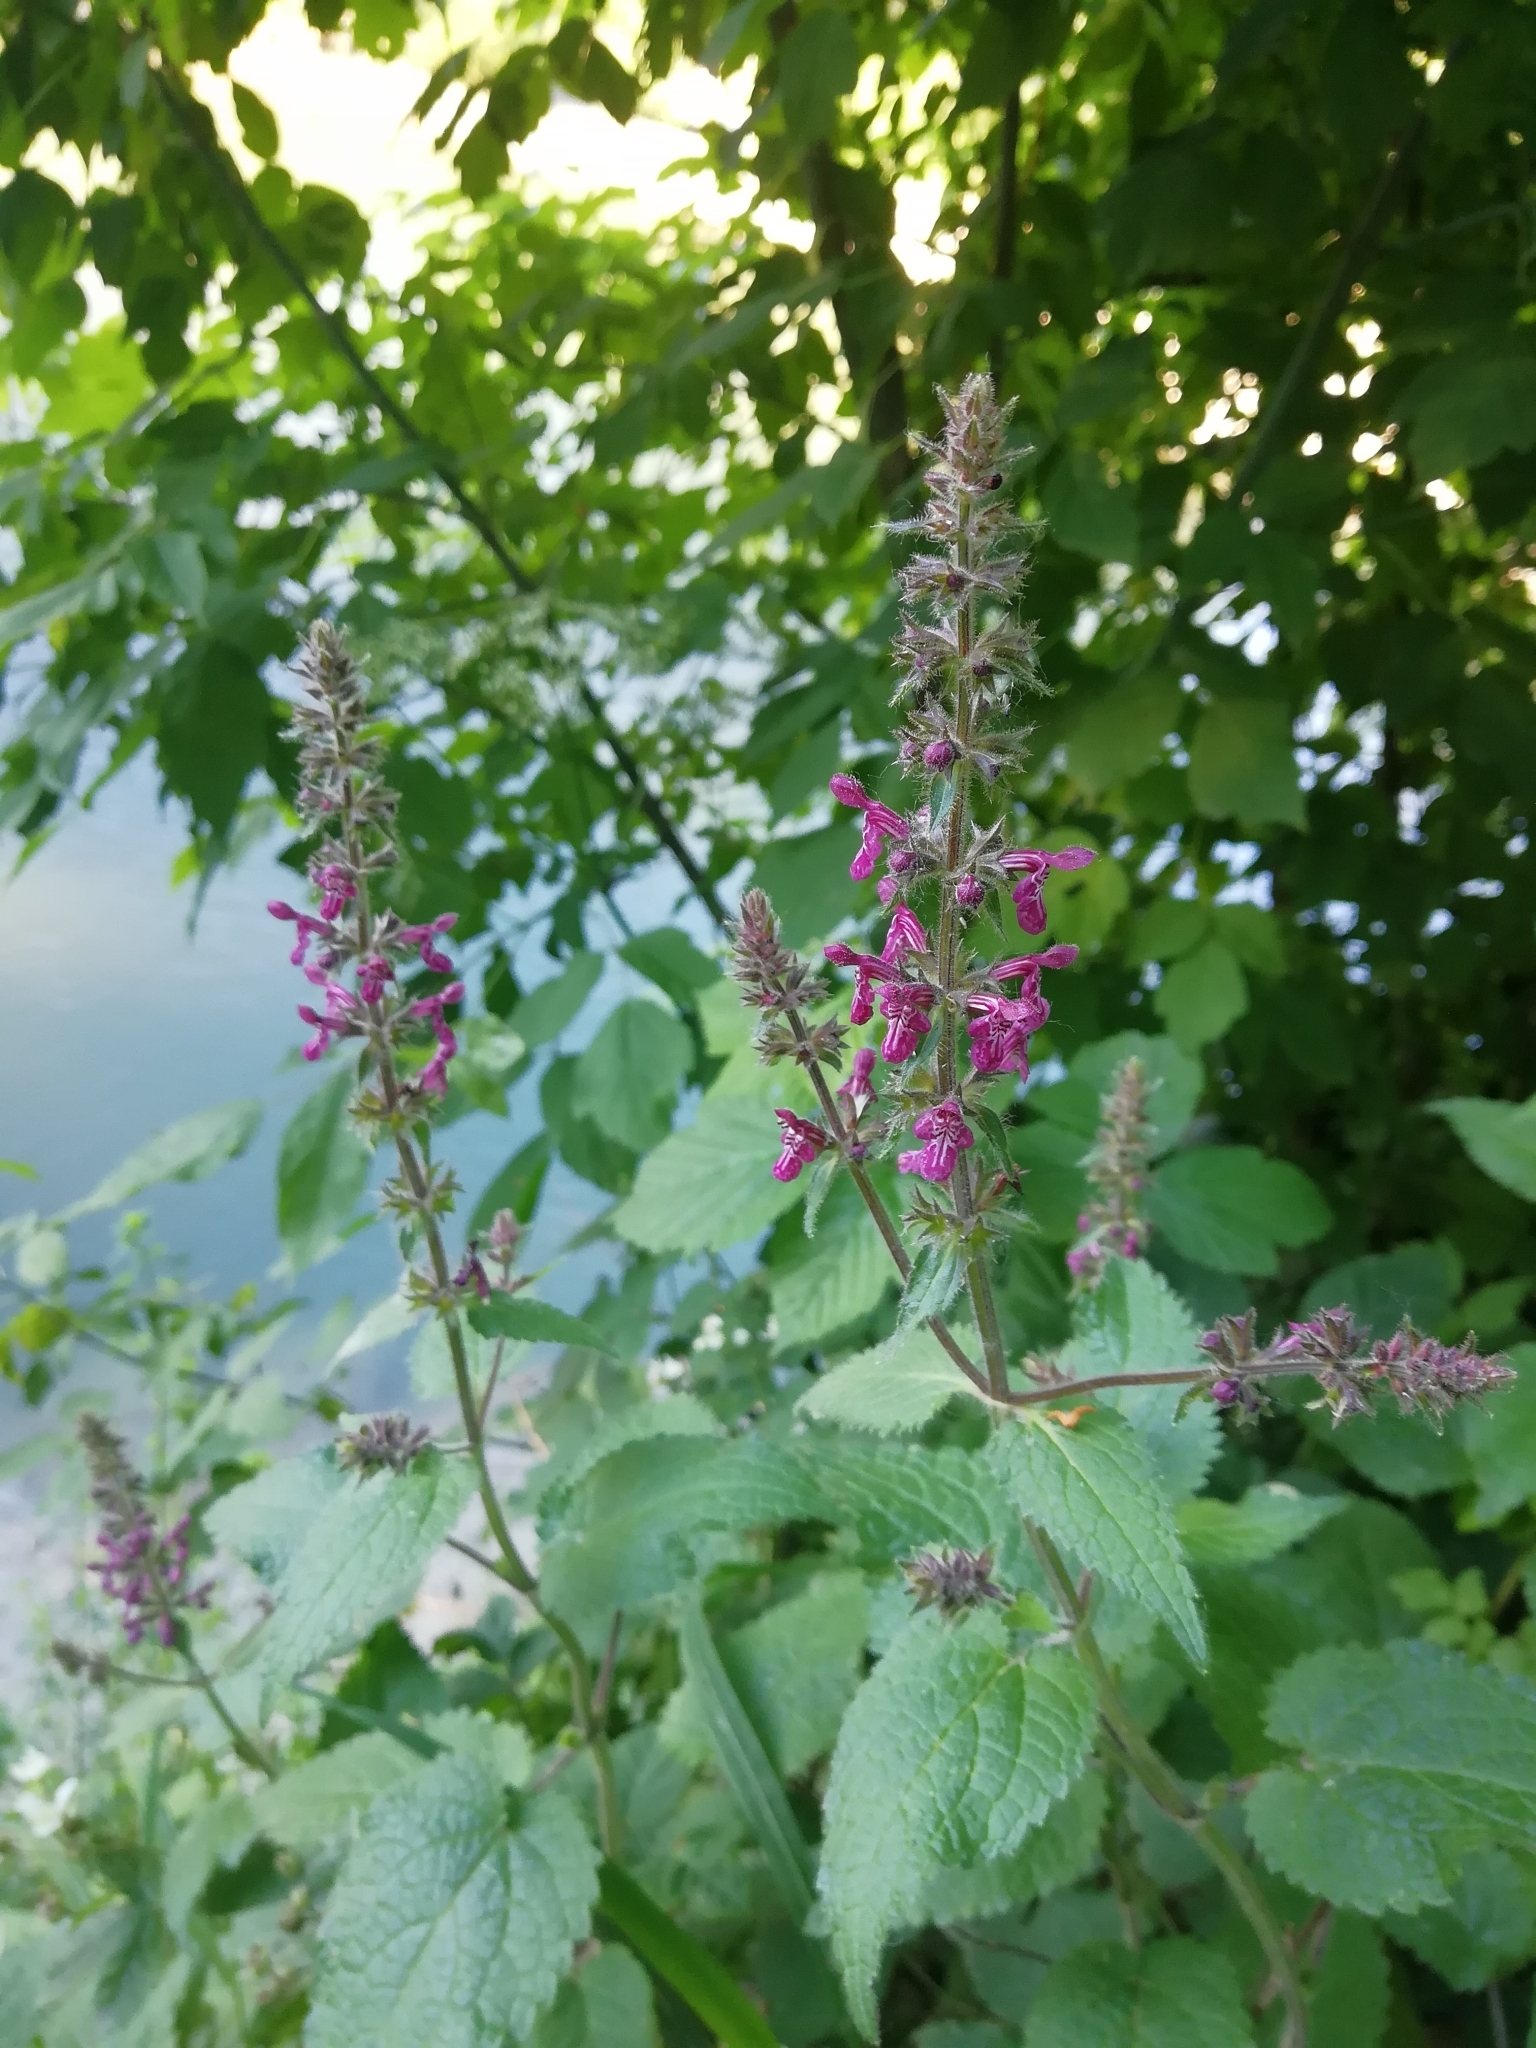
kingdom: Plantae
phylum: Tracheophyta
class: Magnoliopsida
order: Lamiales
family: Lamiaceae
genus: Stachys
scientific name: Stachys sylvatica
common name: Hedge woundwort
